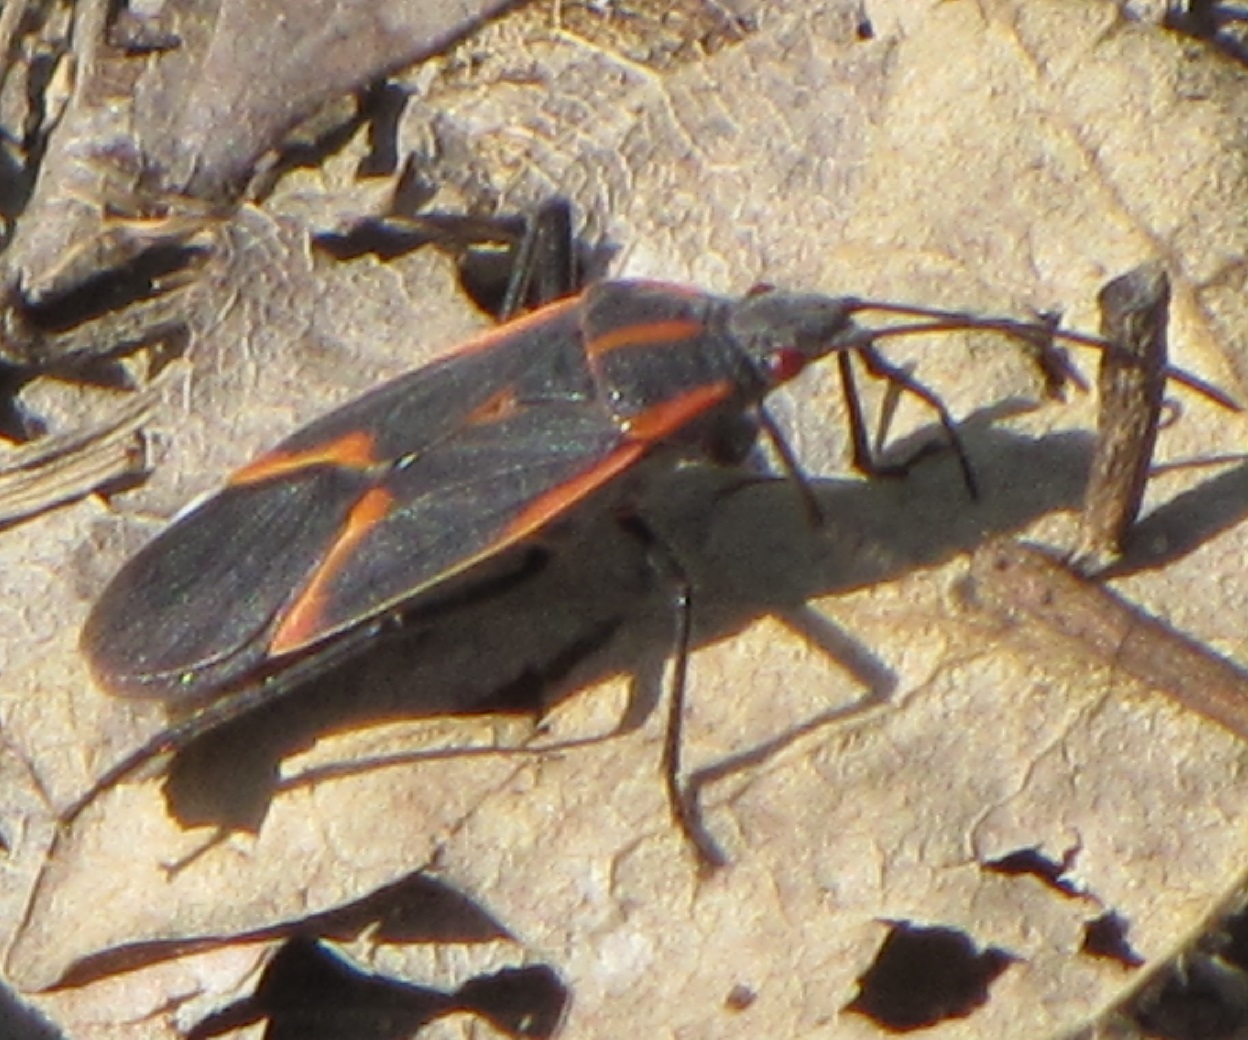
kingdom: Animalia
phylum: Arthropoda
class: Insecta
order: Hemiptera
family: Rhopalidae
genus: Boisea
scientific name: Boisea trivittata
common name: Boxelder bug
